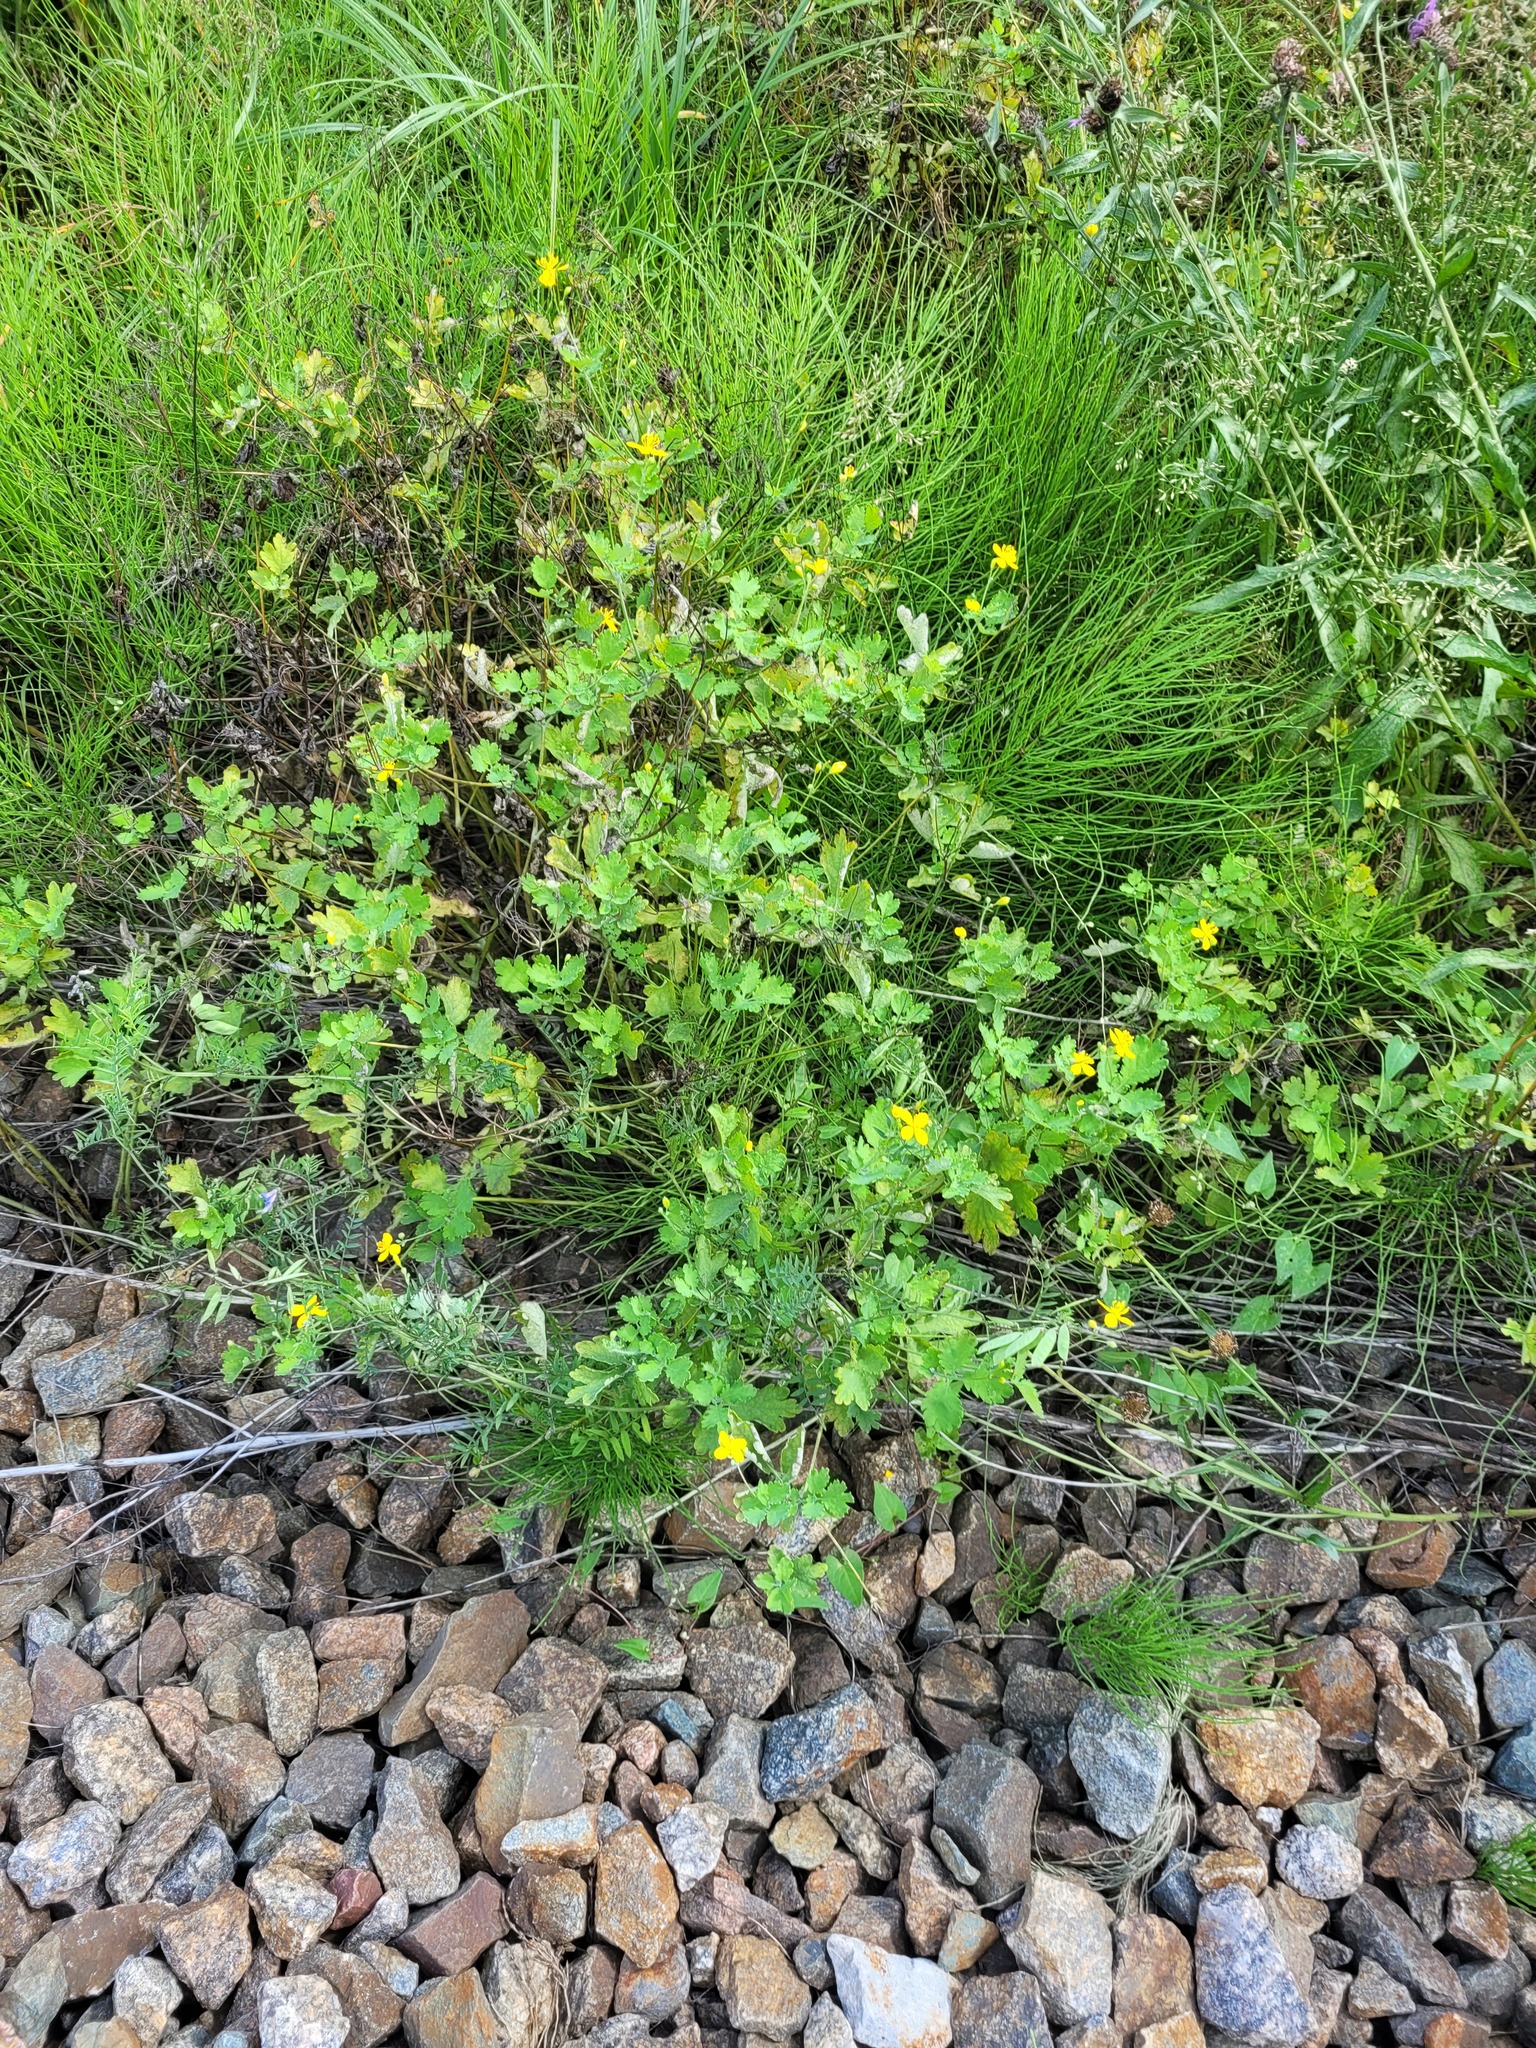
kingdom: Plantae
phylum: Tracheophyta
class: Magnoliopsida
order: Ranunculales
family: Papaveraceae
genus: Chelidonium
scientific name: Chelidonium majus
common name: Greater celandine
